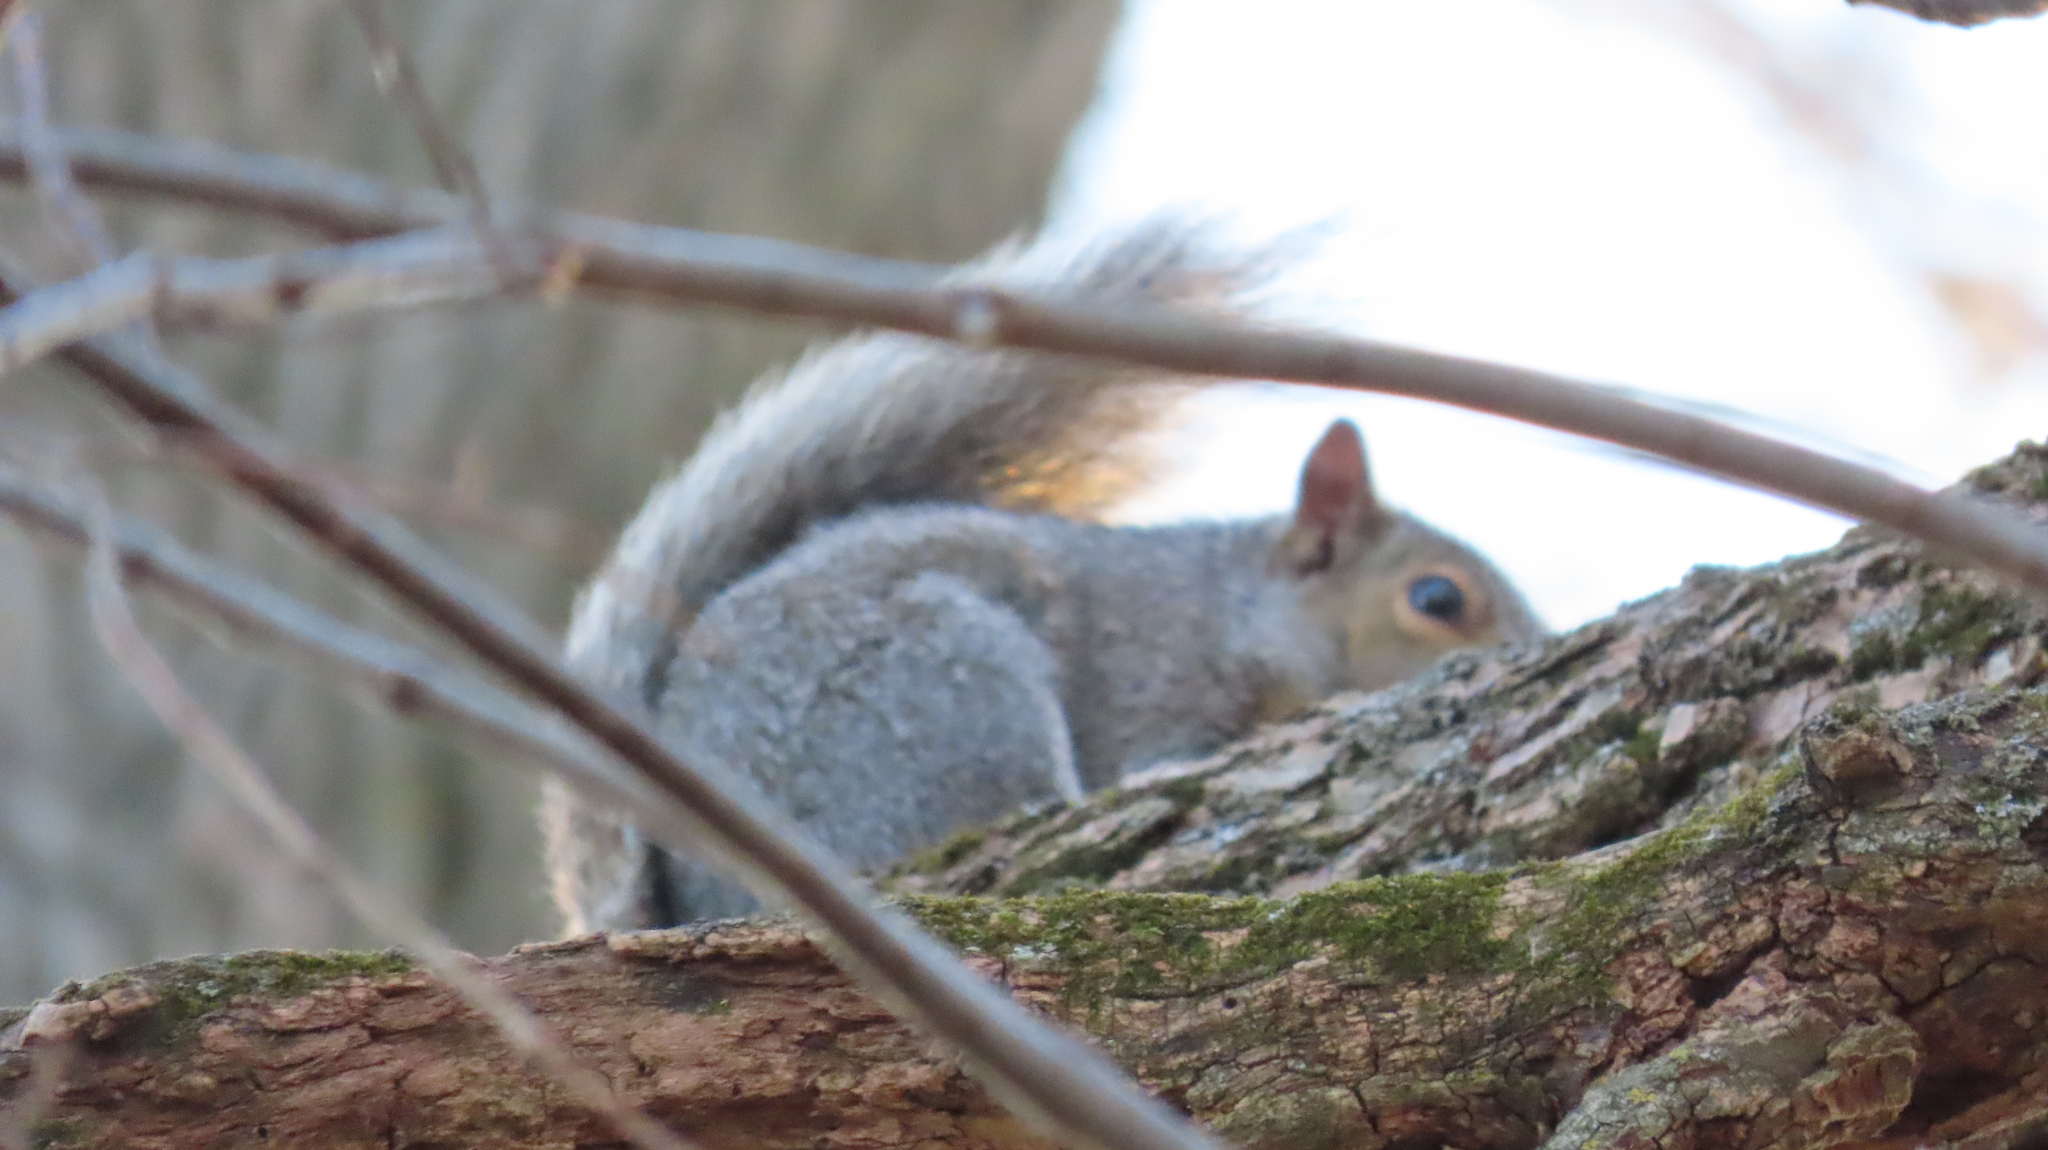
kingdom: Animalia
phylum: Chordata
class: Mammalia
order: Rodentia
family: Sciuridae
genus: Sciurus
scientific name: Sciurus carolinensis
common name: Eastern gray squirrel
